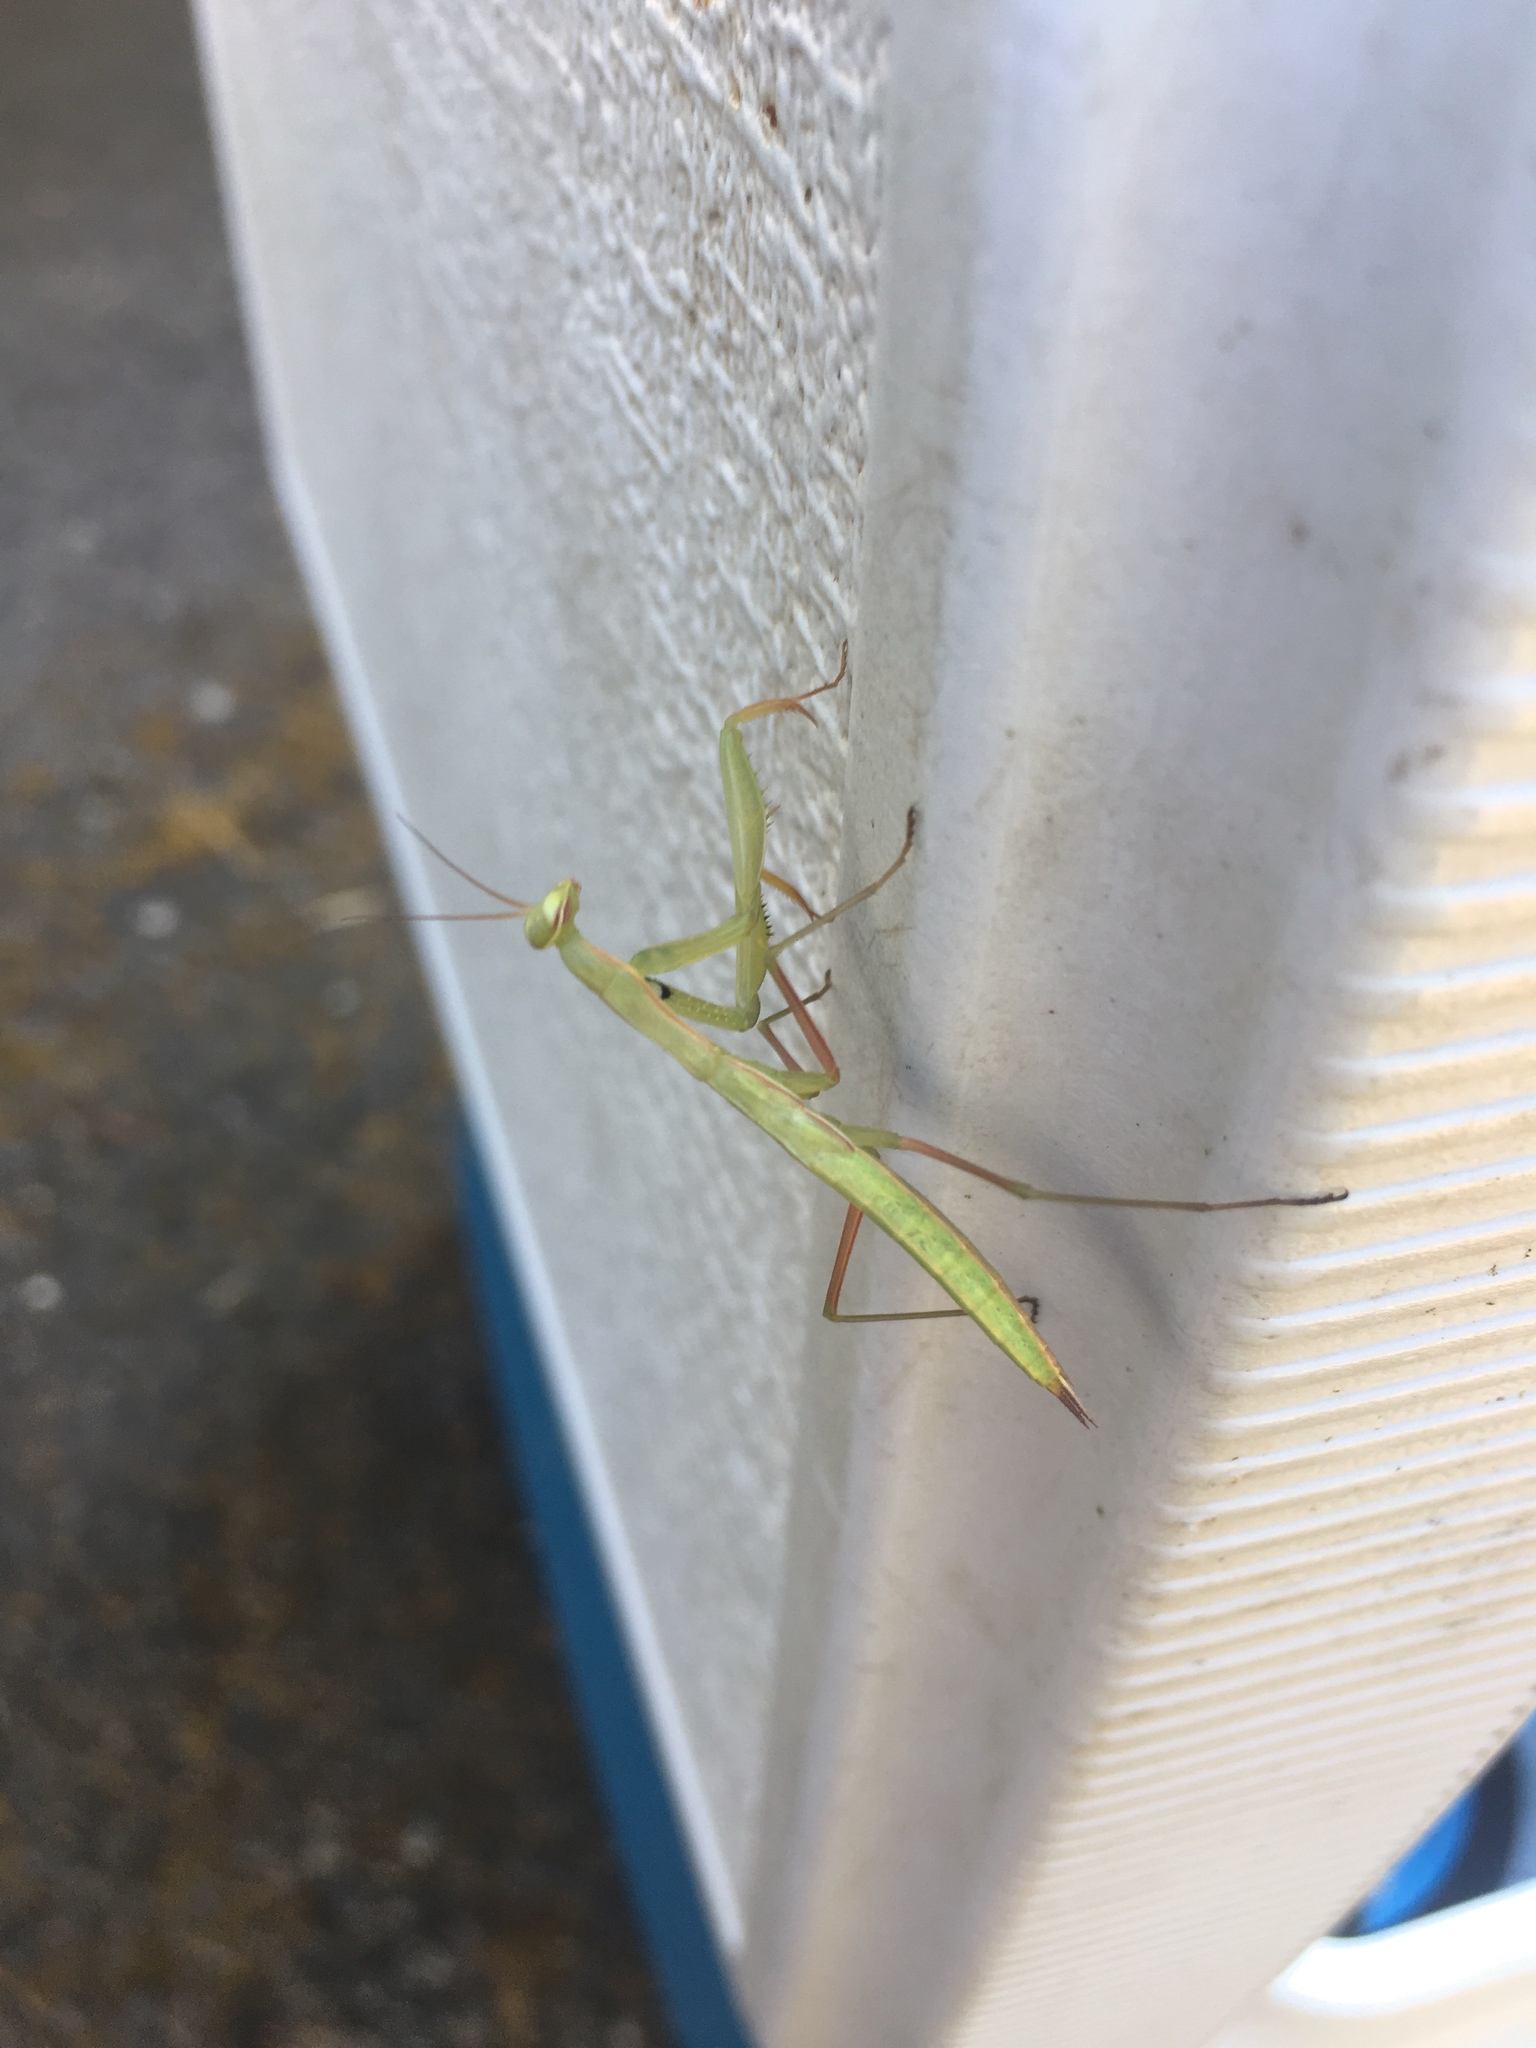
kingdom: Animalia
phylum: Arthropoda
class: Insecta
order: Mantodea
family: Mantidae
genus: Mantis
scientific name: Mantis religiosa
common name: Praying mantis
